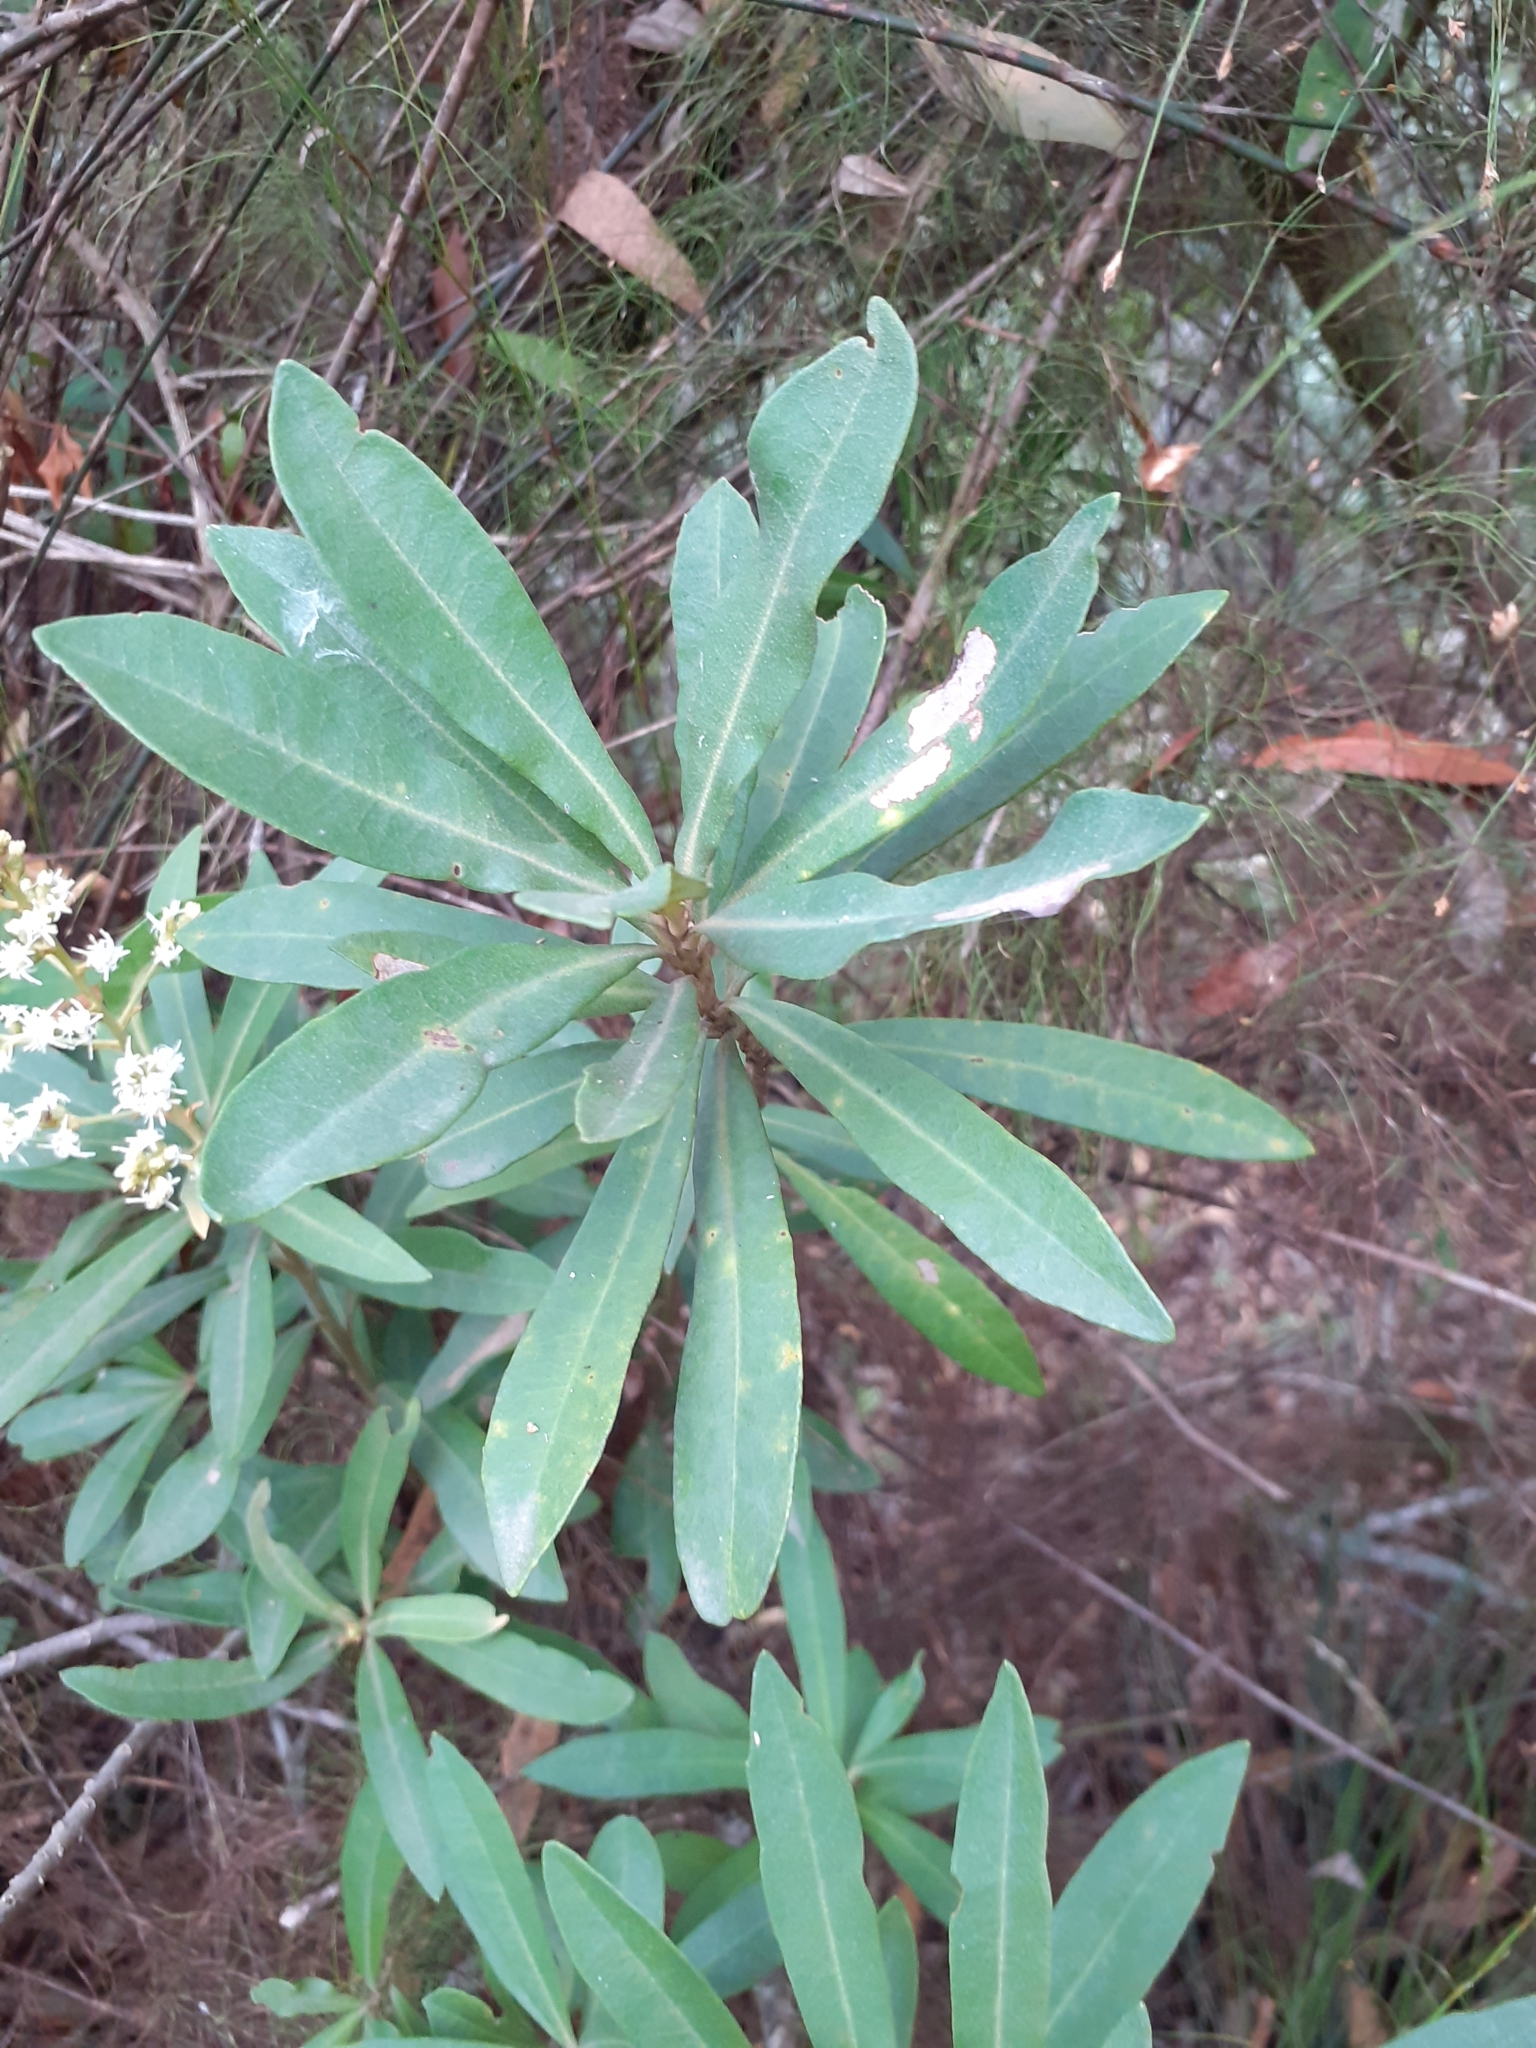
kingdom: Plantae
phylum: Tracheophyta
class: Magnoliopsida
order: Asterales
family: Asteraceae
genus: Brachylaena
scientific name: Brachylaena neriifolia
